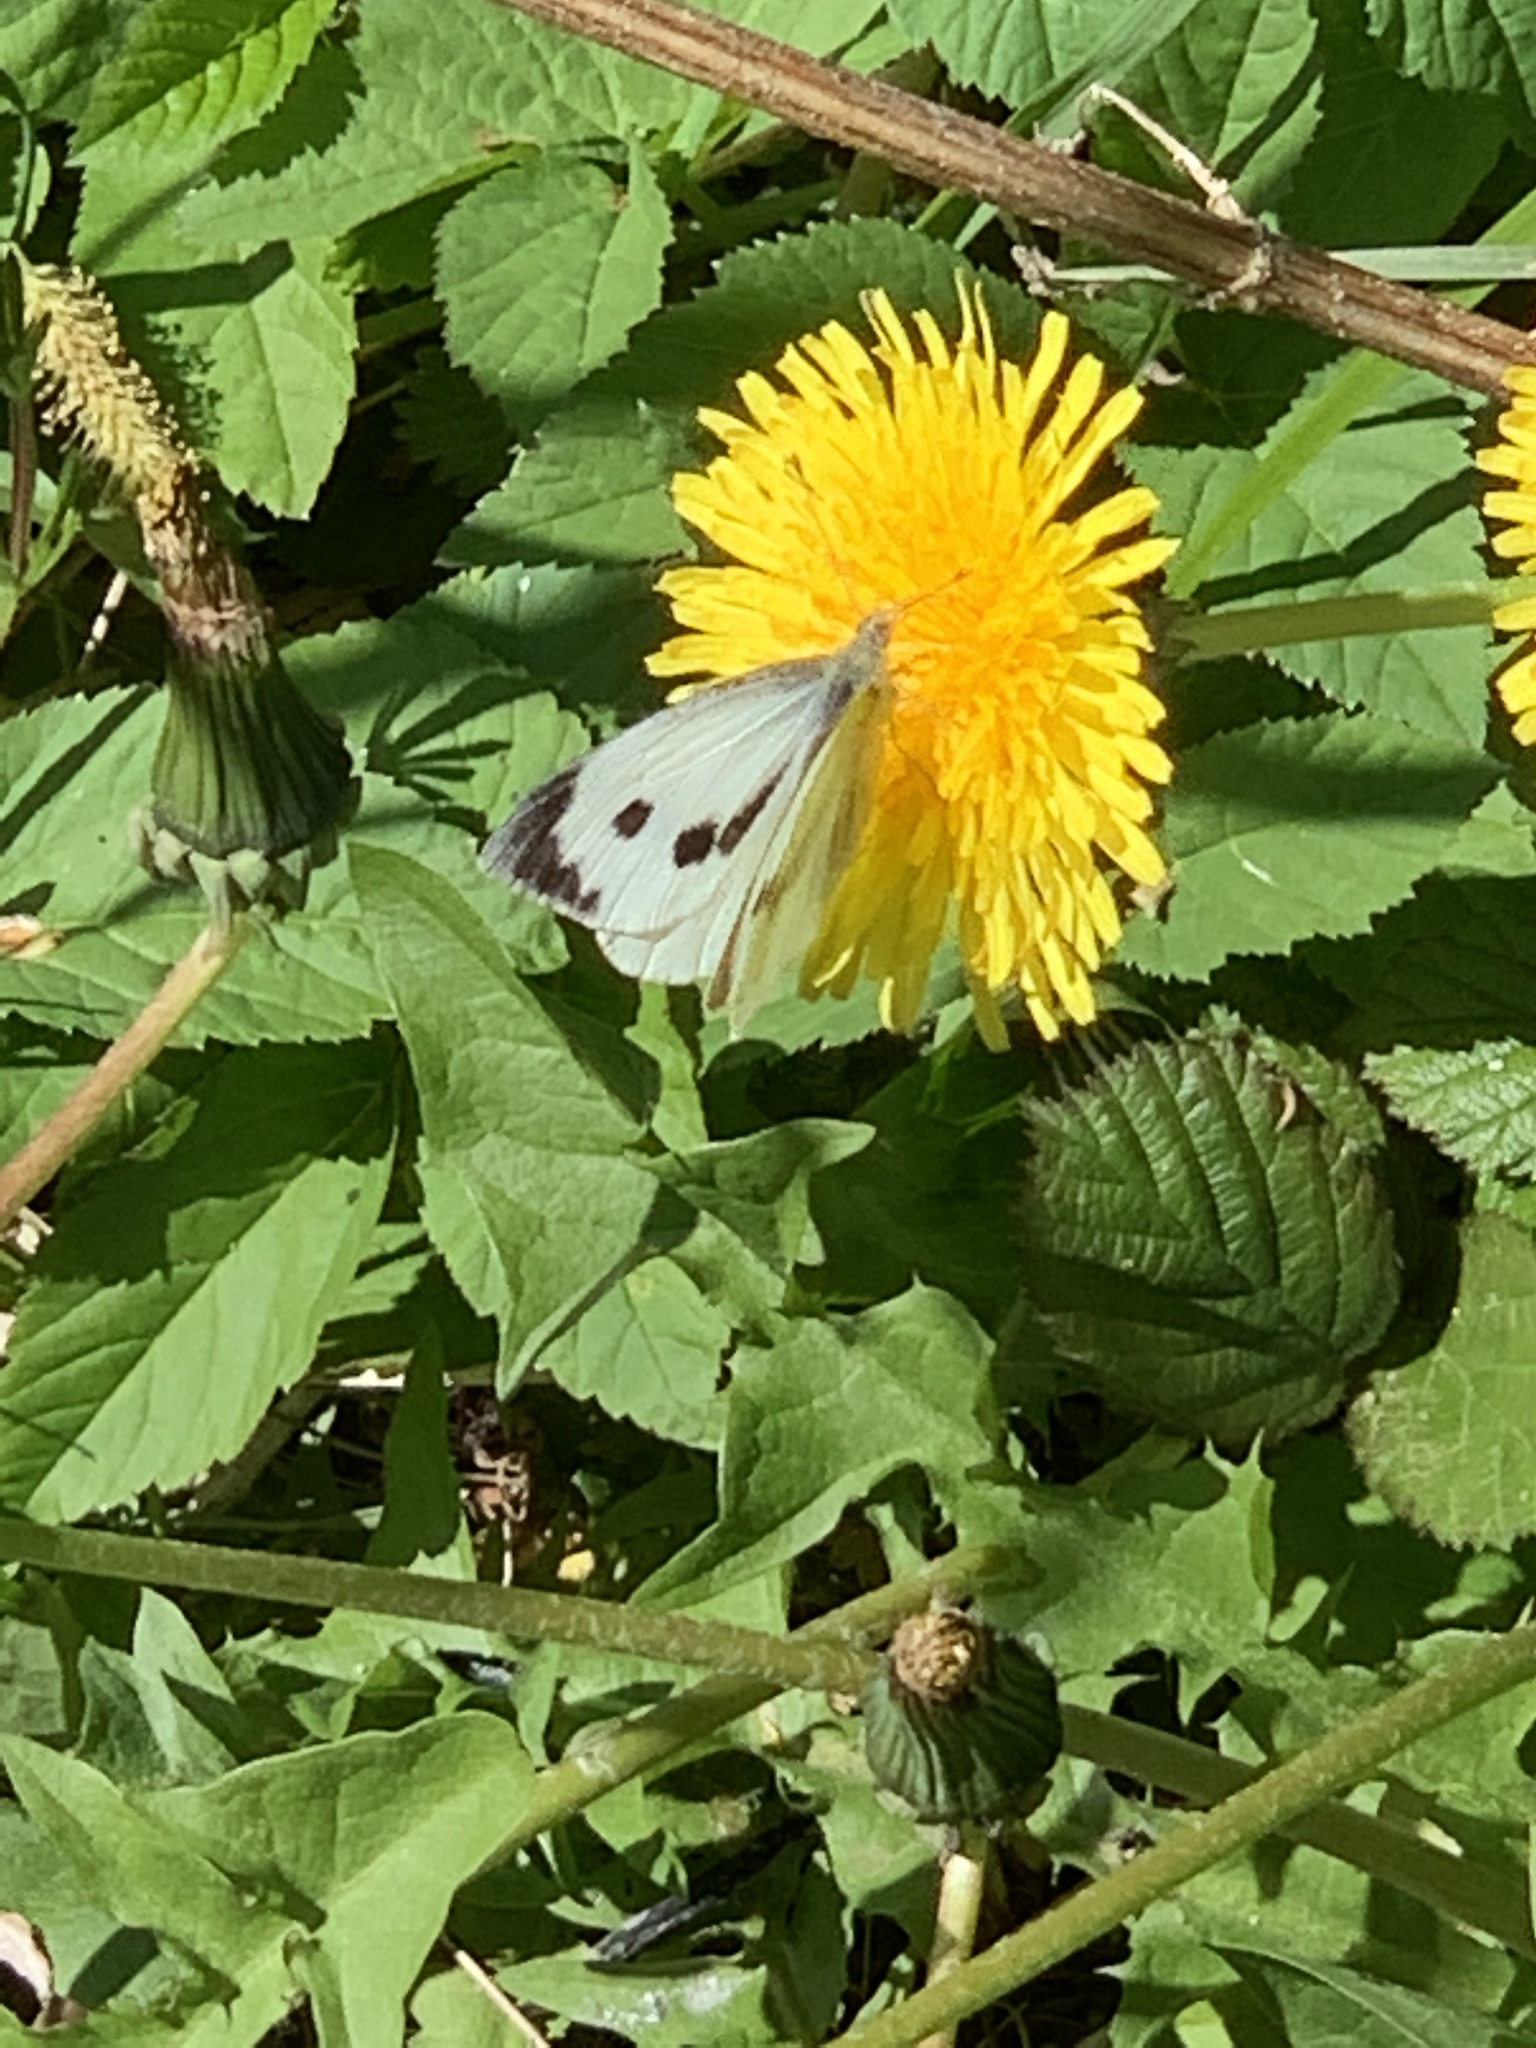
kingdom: Animalia
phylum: Arthropoda
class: Insecta
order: Lepidoptera
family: Pieridae
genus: Pieris
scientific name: Pieris brassicae
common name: Large white
